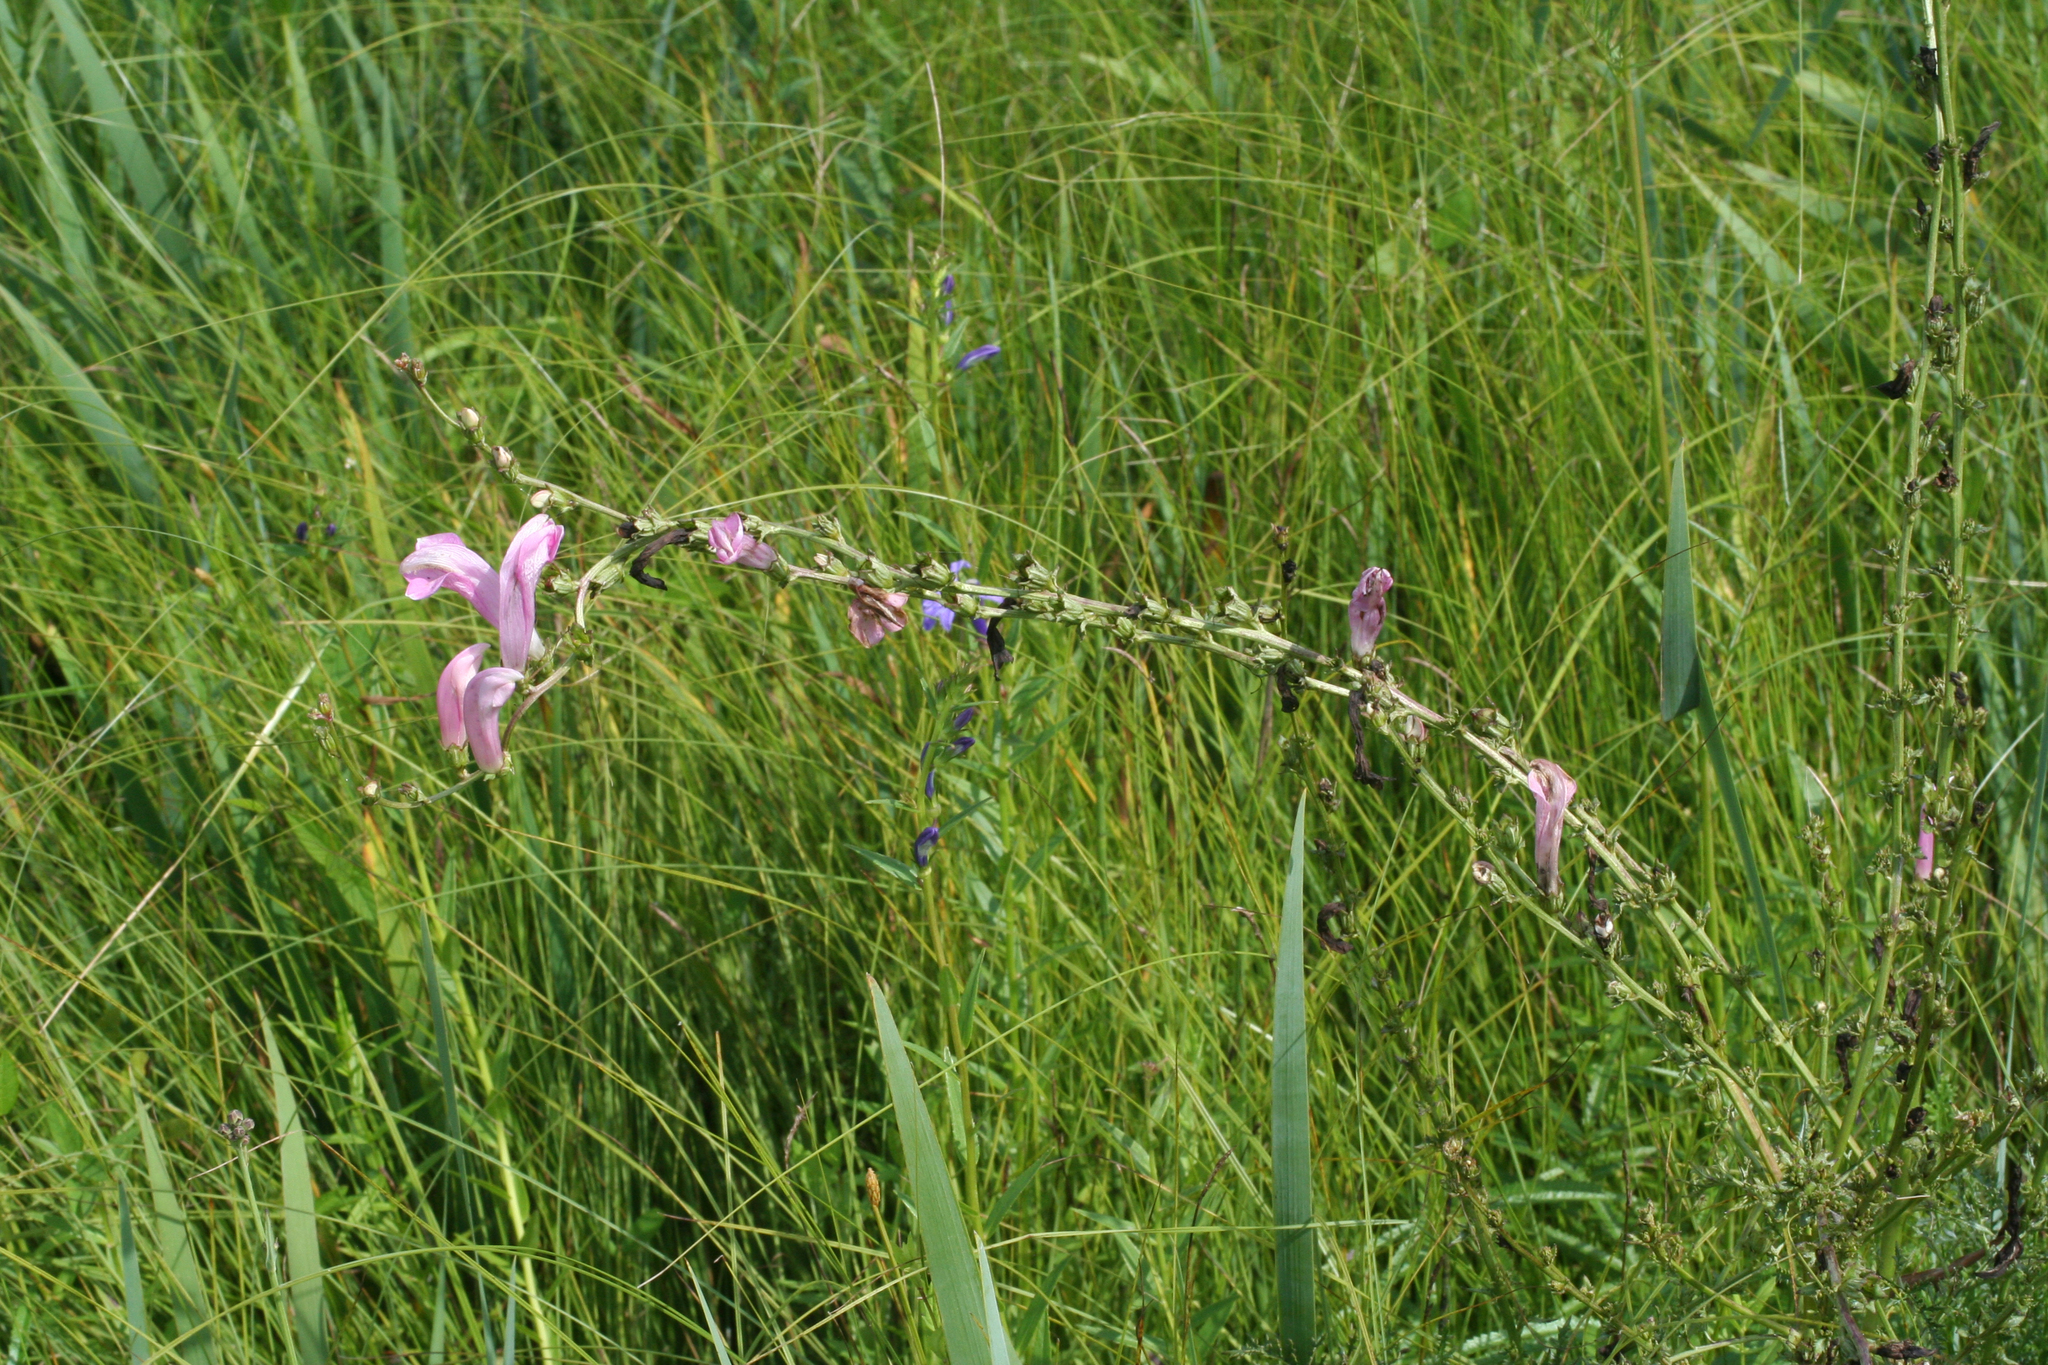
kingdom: Plantae
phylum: Tracheophyta
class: Magnoliopsida
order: Lamiales
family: Orobanchaceae
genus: Pedicularis
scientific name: Pedicularis
